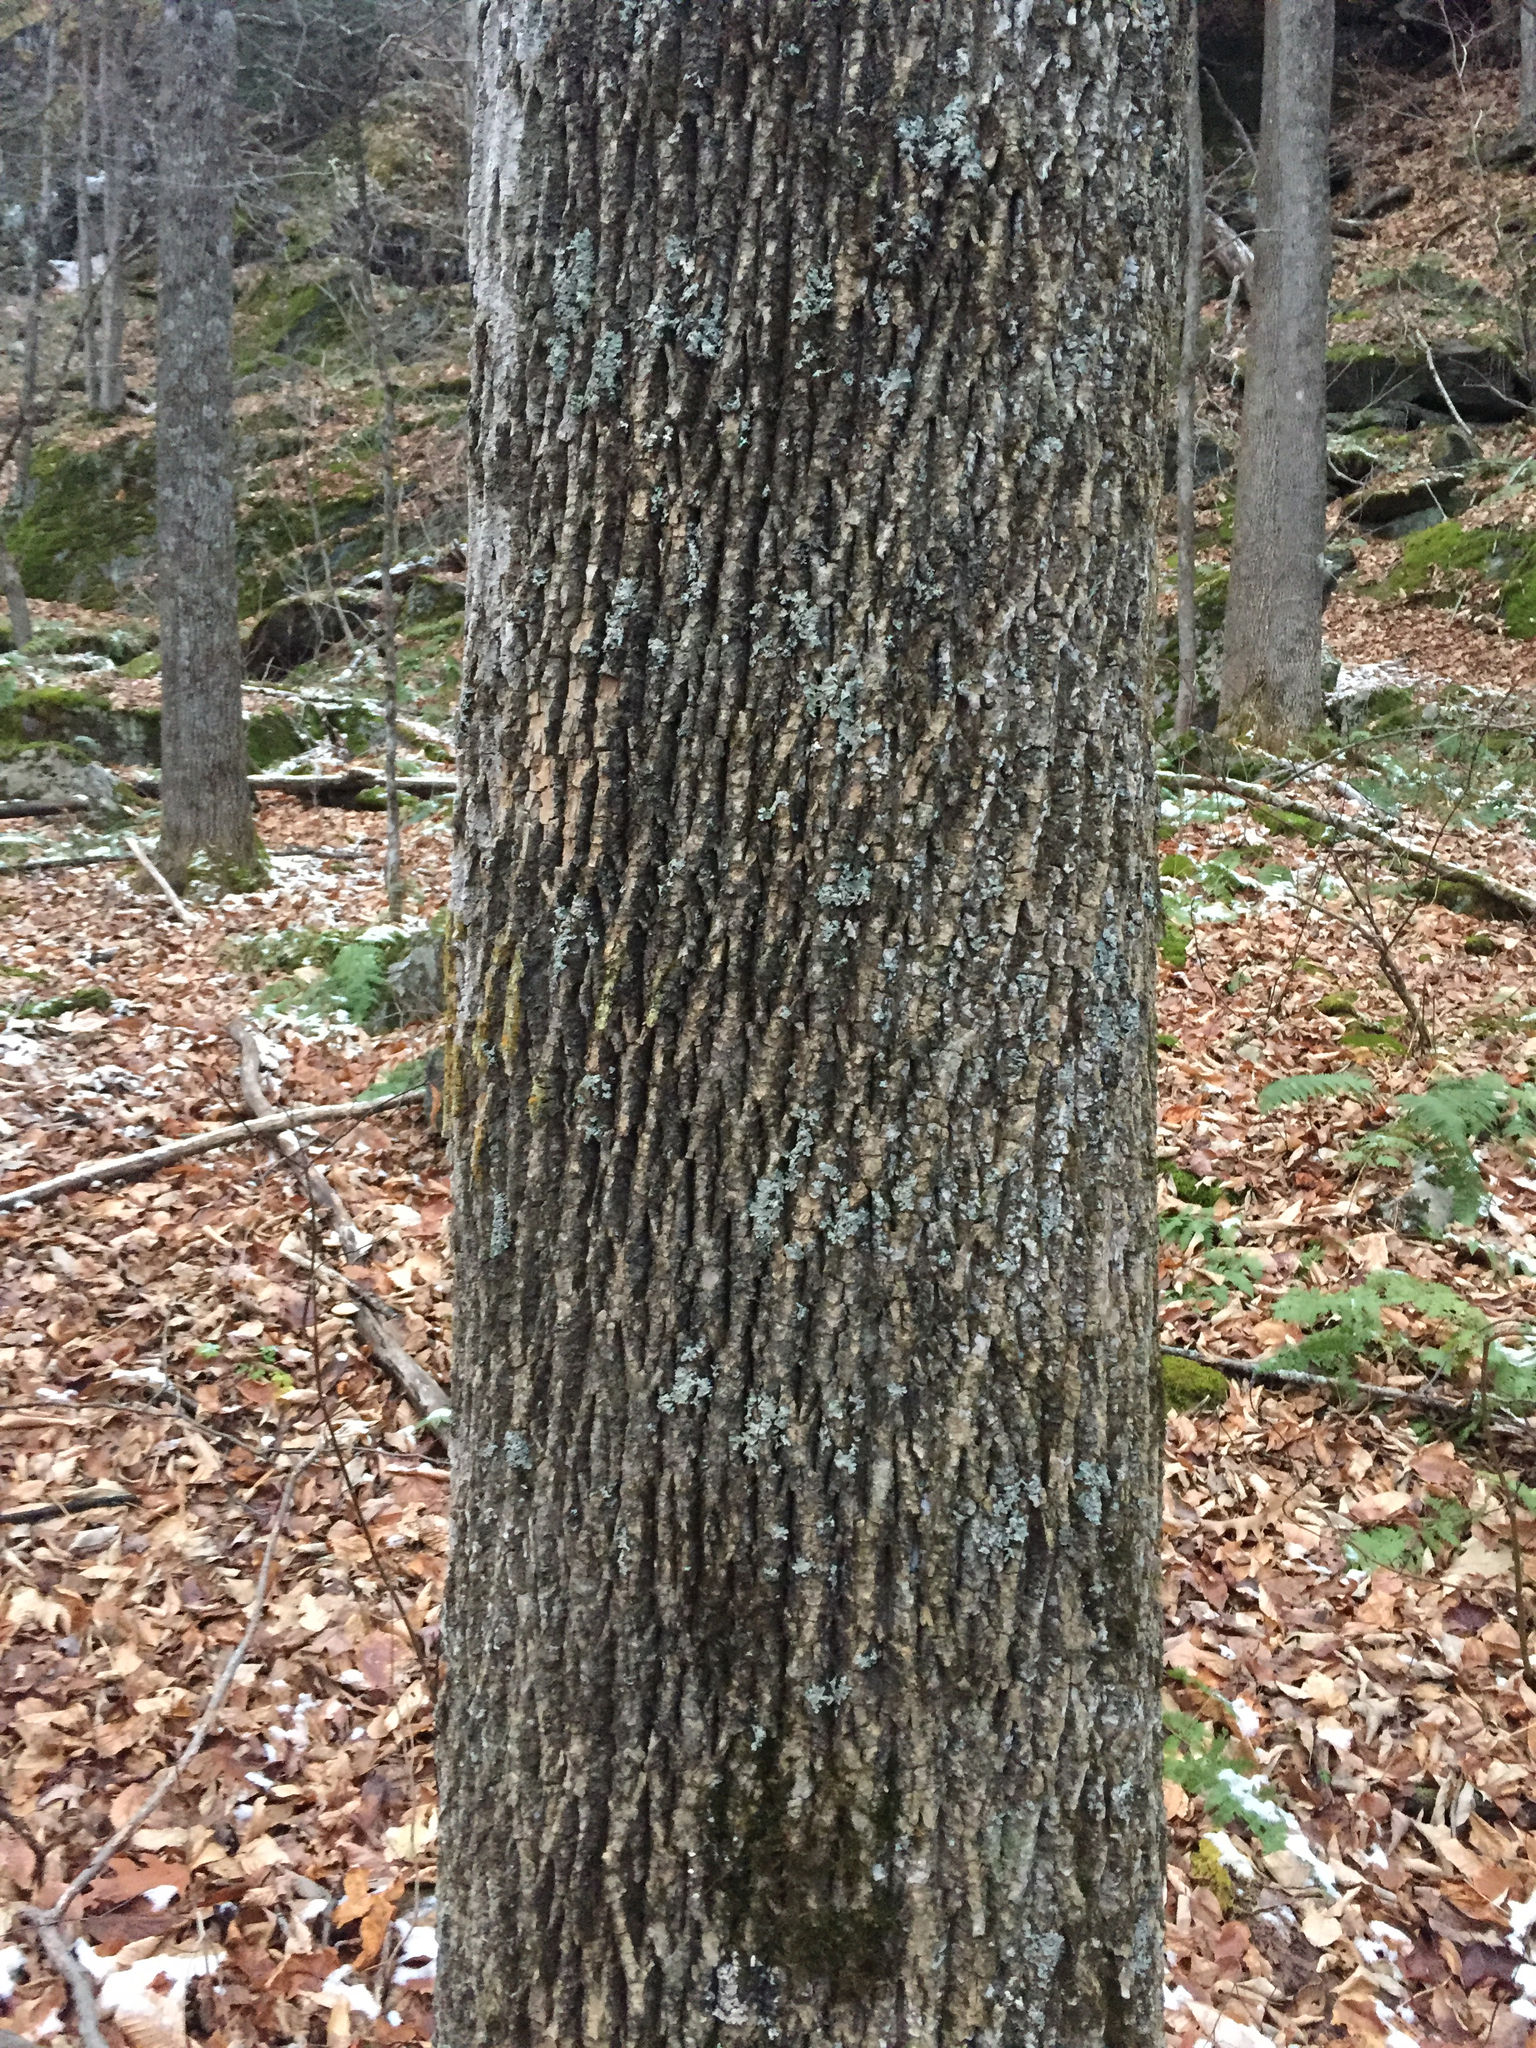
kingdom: Plantae
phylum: Tracheophyta
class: Magnoliopsida
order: Lamiales
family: Oleaceae
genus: Fraxinus
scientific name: Fraxinus americana
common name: White ash
